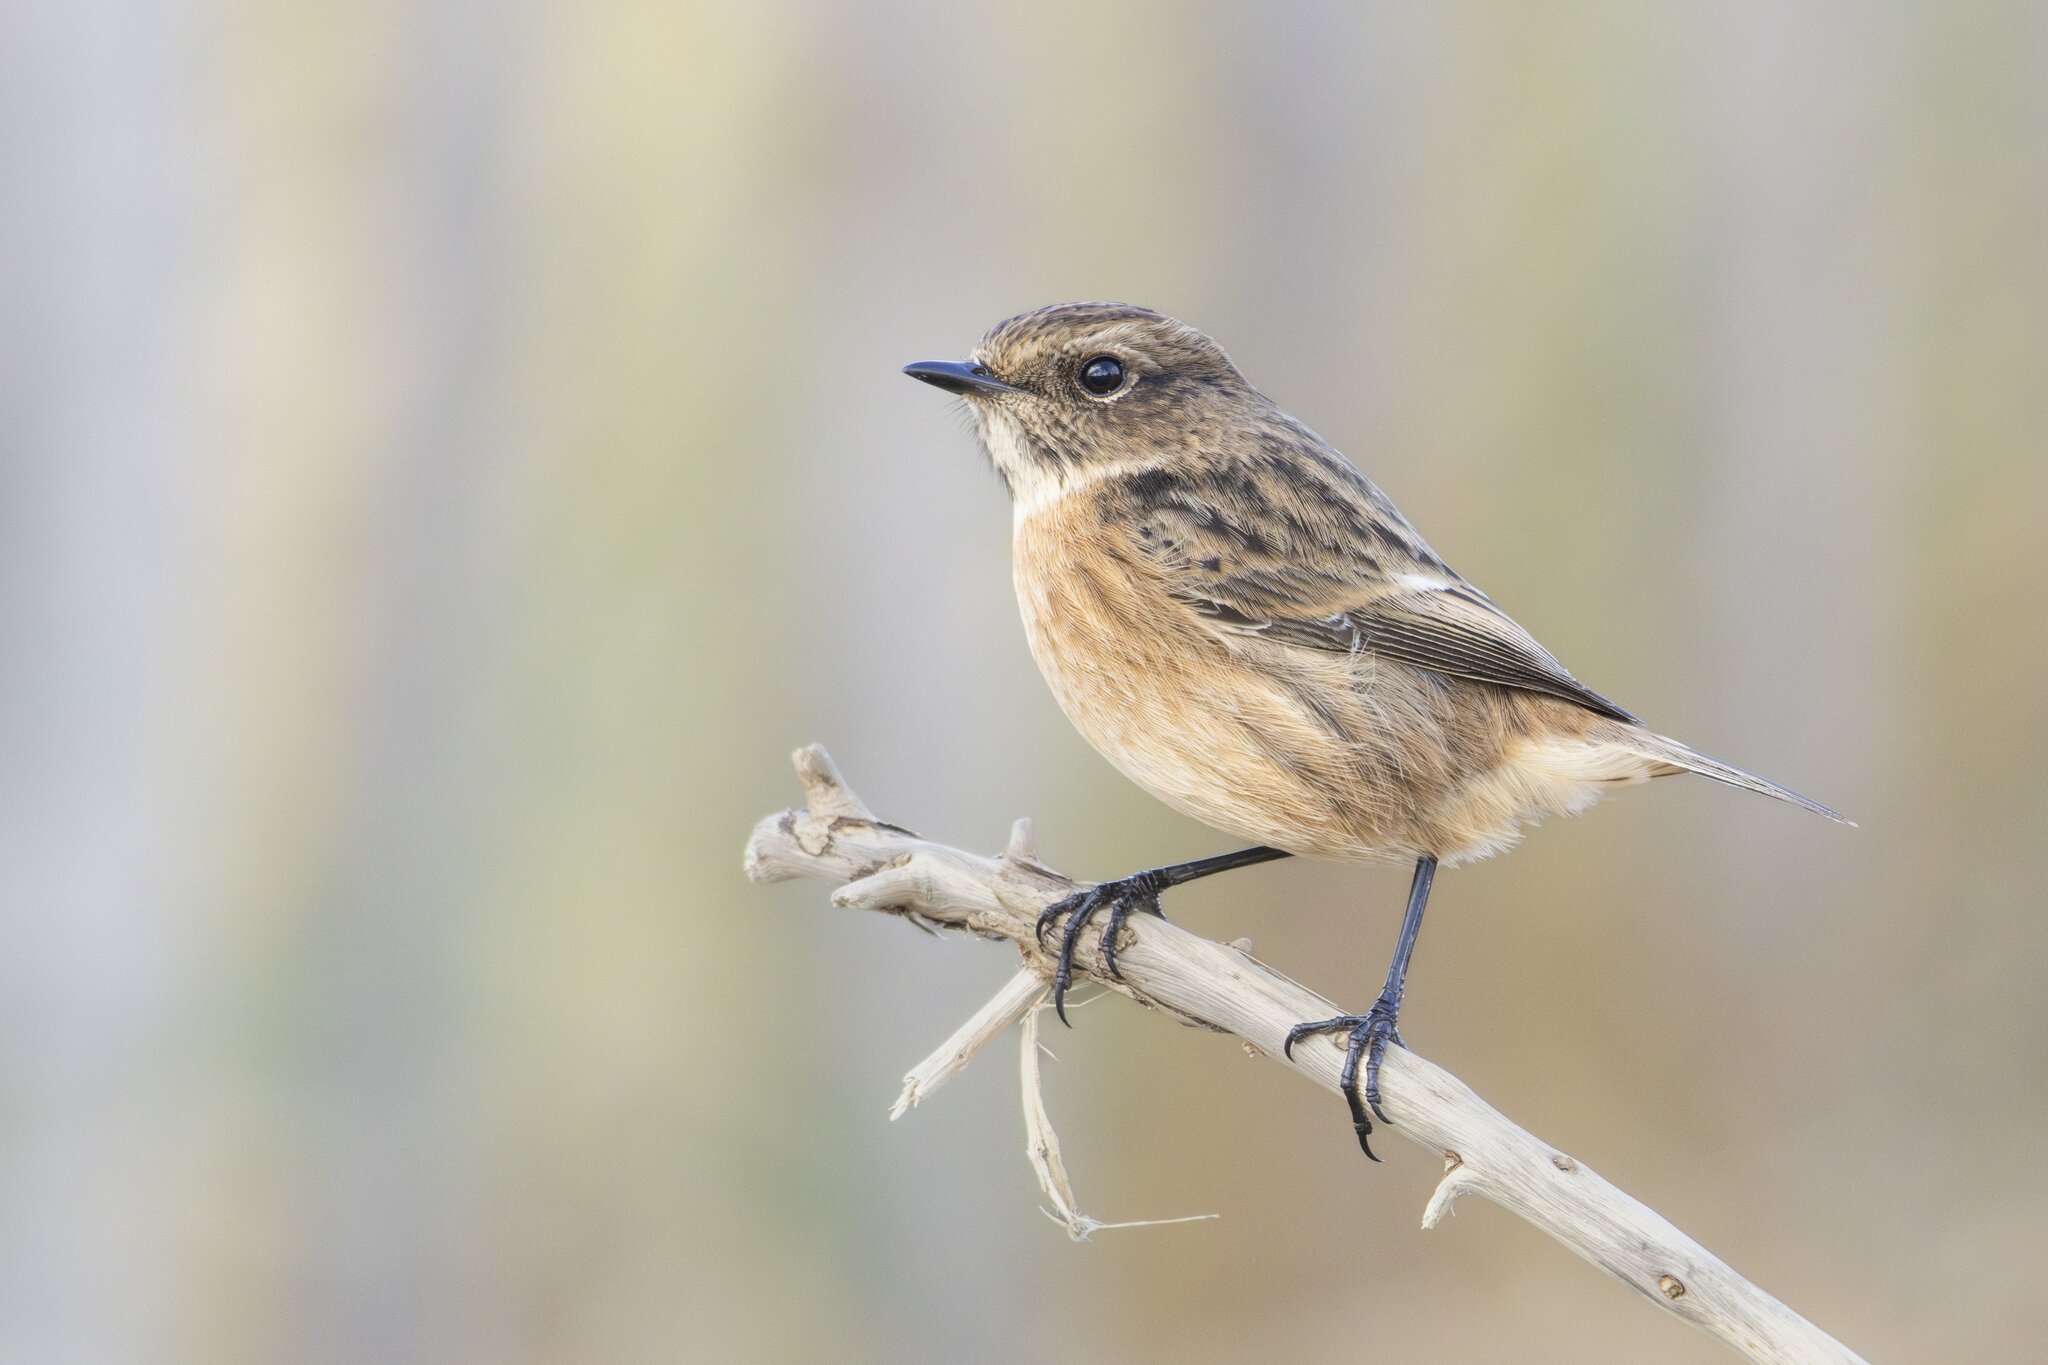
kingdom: Animalia
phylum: Chordata
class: Aves
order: Passeriformes
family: Muscicapidae
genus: Saxicola
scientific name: Saxicola rubicola
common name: European stonechat
